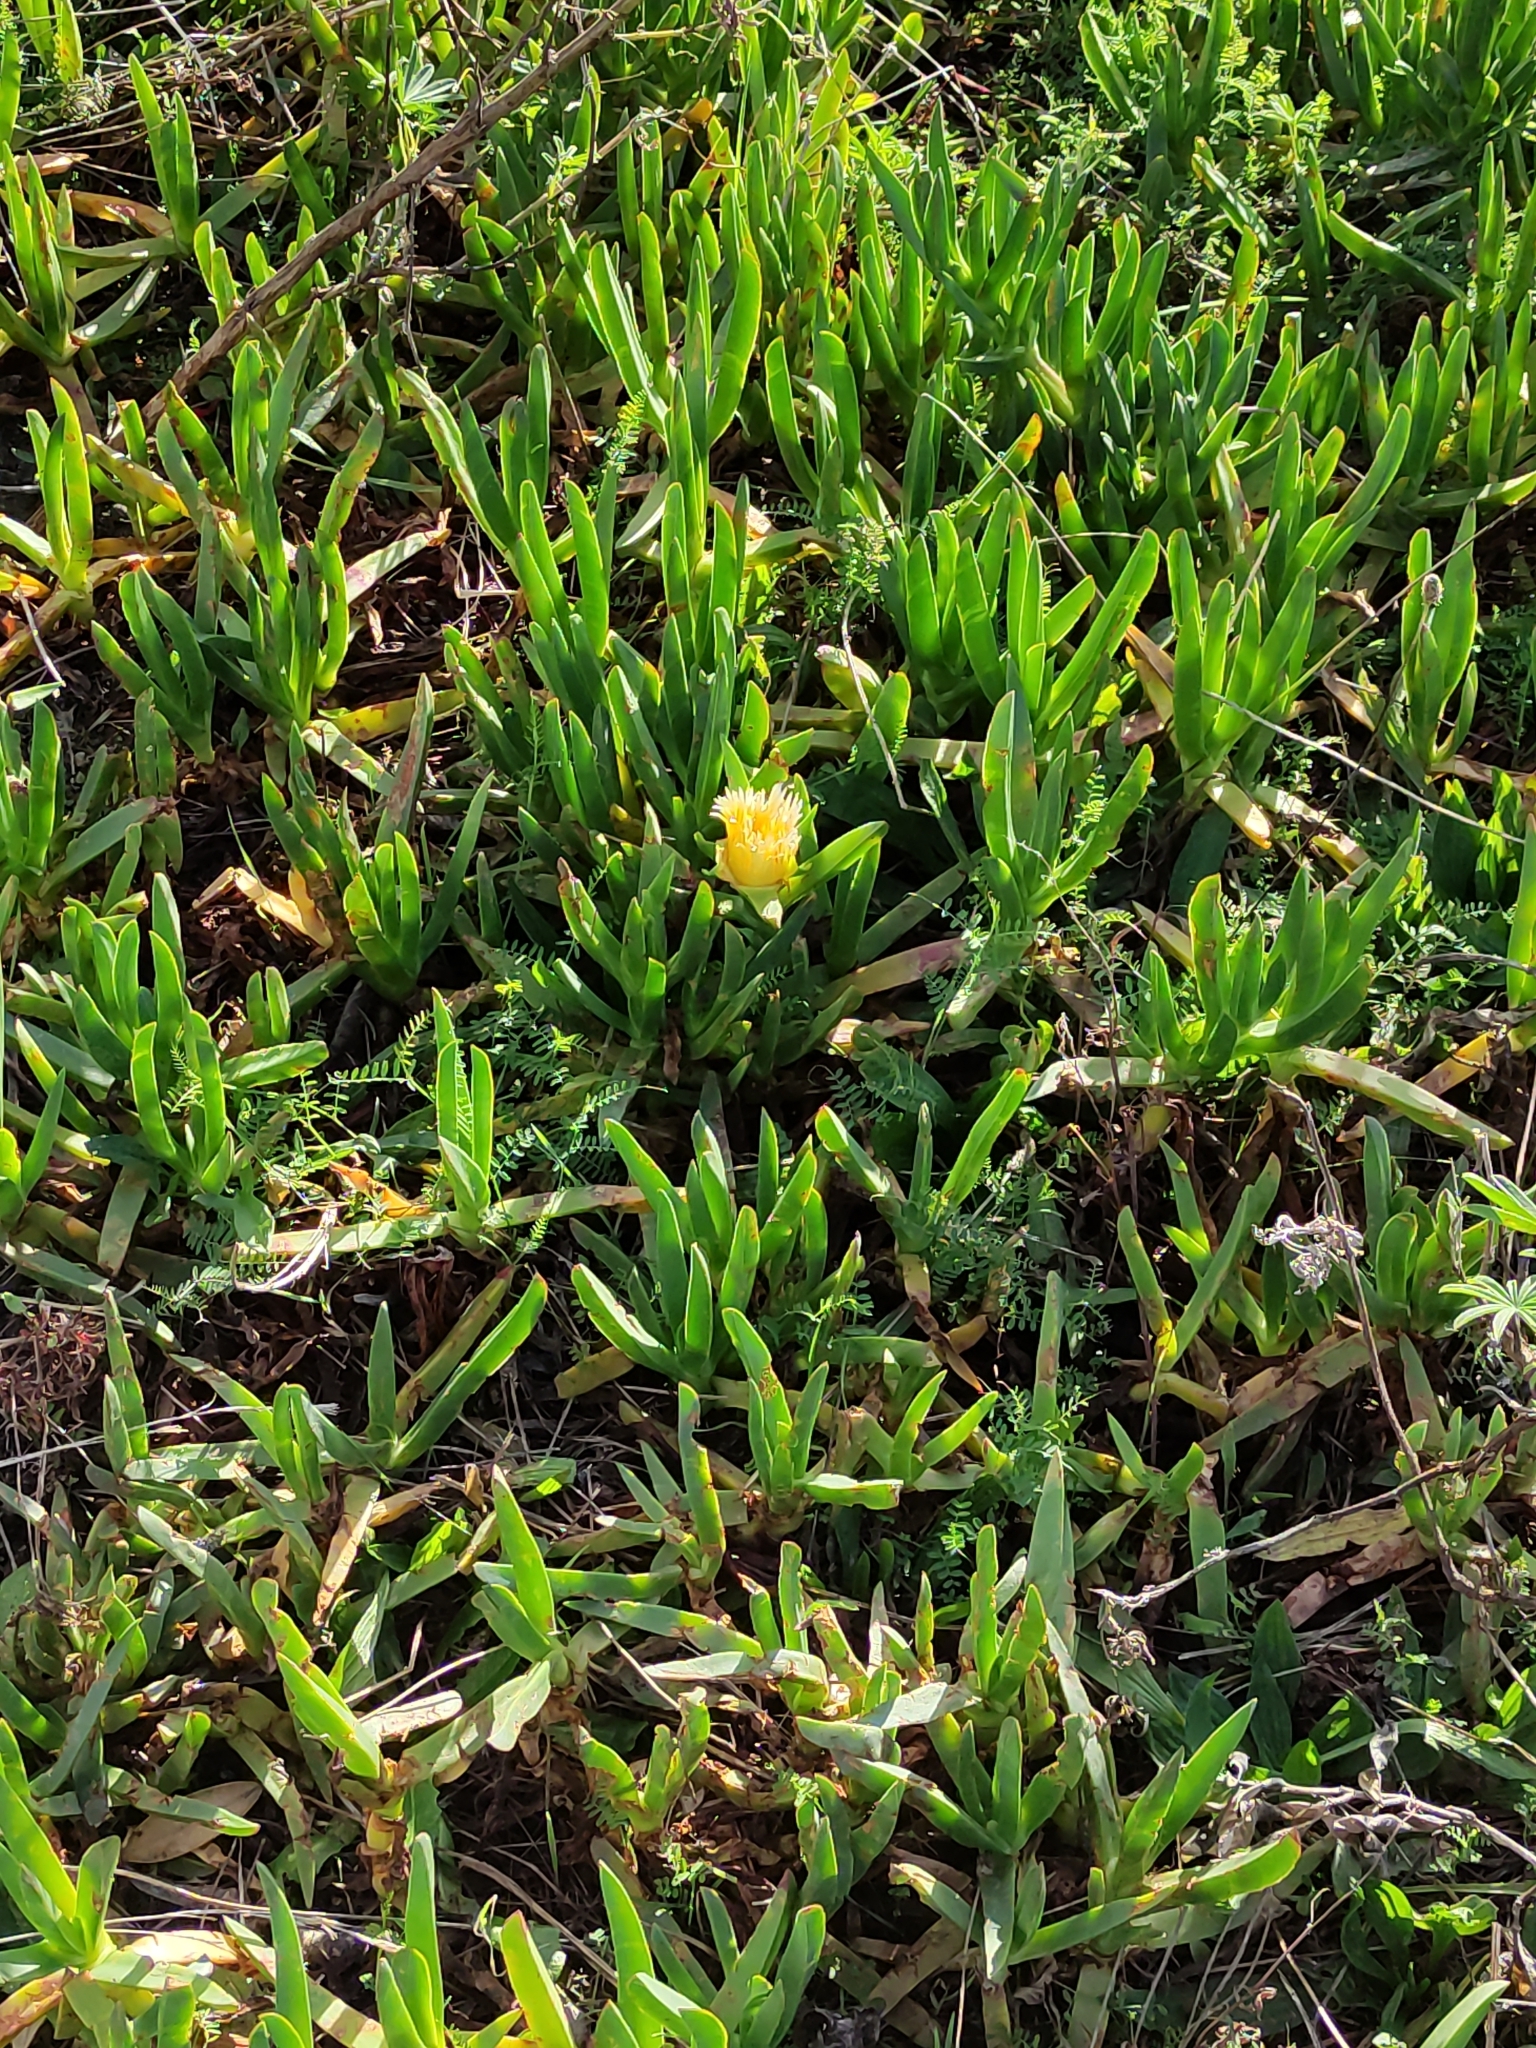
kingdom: Plantae
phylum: Tracheophyta
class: Magnoliopsida
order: Caryophyllales
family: Aizoaceae
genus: Carpobrotus
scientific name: Carpobrotus edulis
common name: Hottentot-fig
